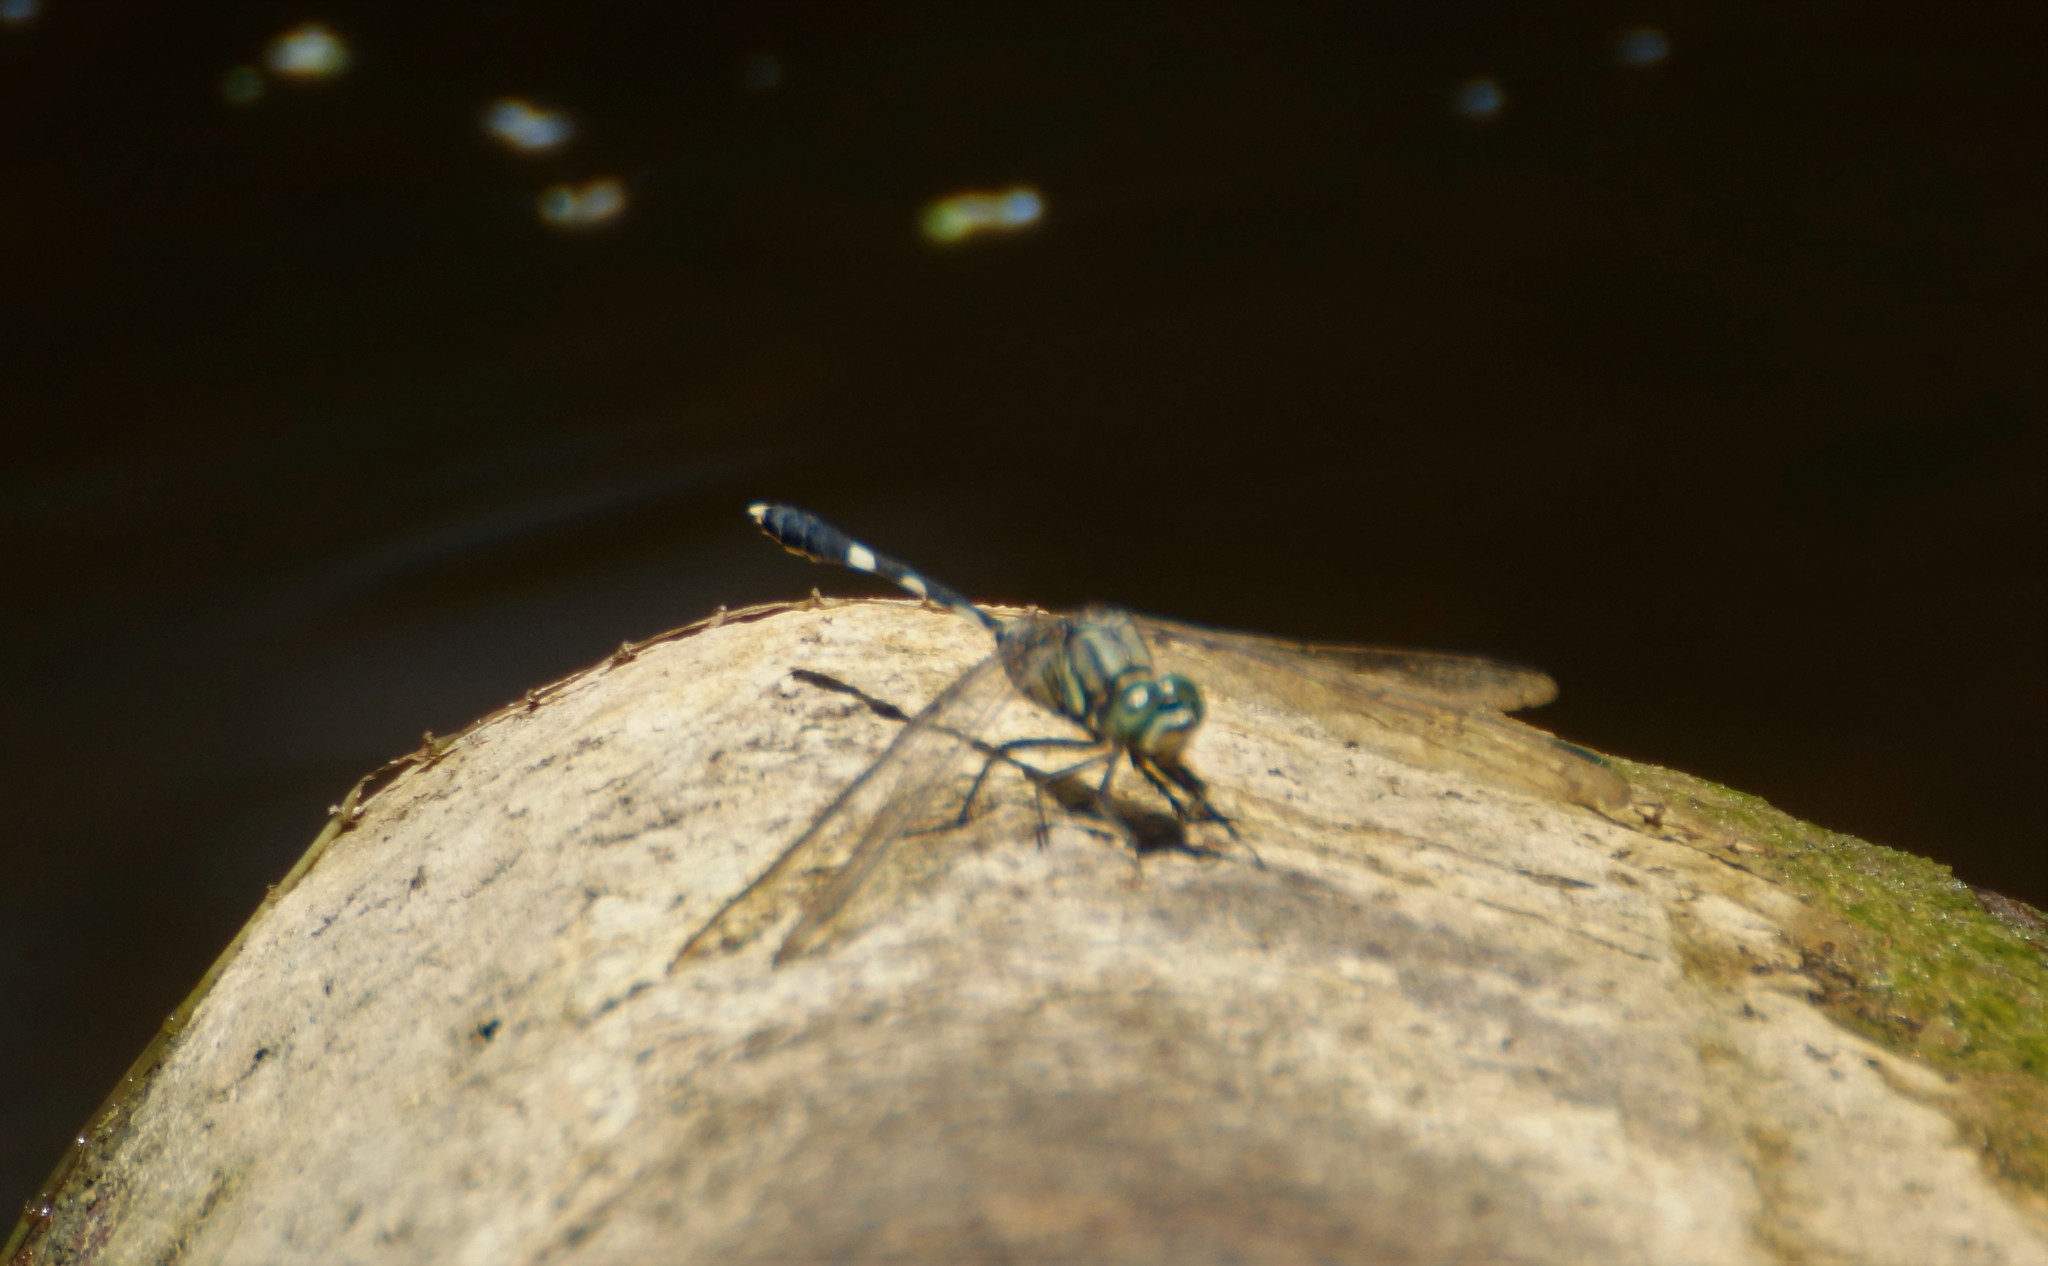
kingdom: Animalia
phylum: Arthropoda
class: Insecta
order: Odonata
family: Libellulidae
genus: Orthetrum
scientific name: Orthetrum sabina
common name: Slender skimmer
